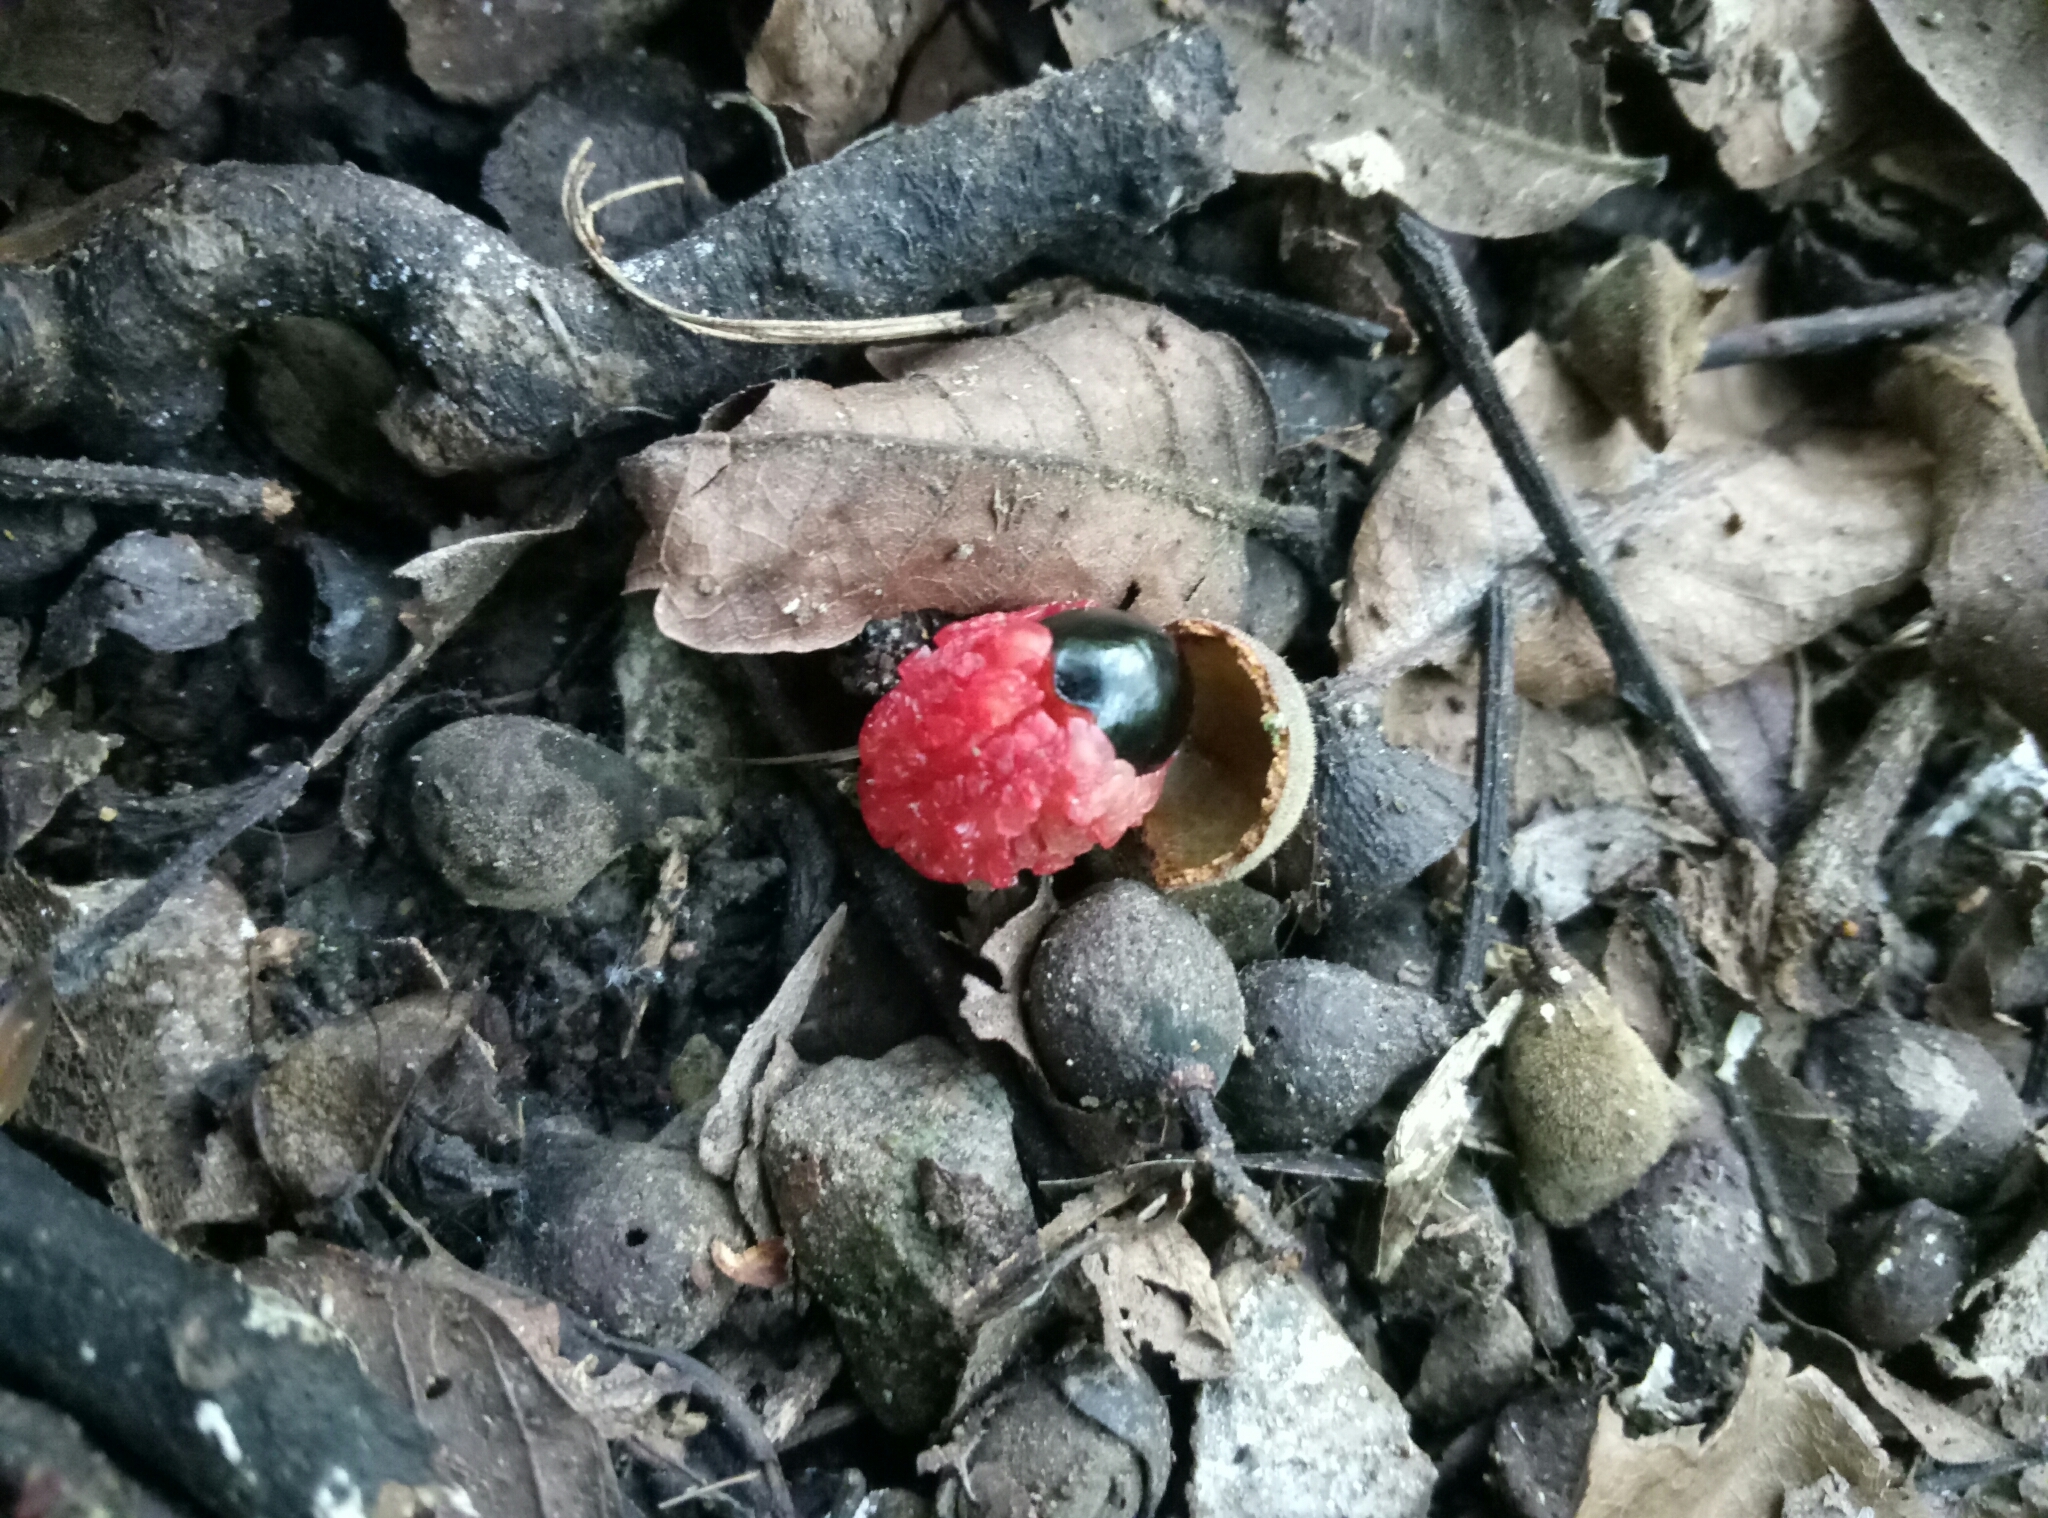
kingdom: Plantae
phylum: Tracheophyta
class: Magnoliopsida
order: Sapindales
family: Sapindaceae
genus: Alectryon
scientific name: Alectryon excelsus
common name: Three kings titoki
